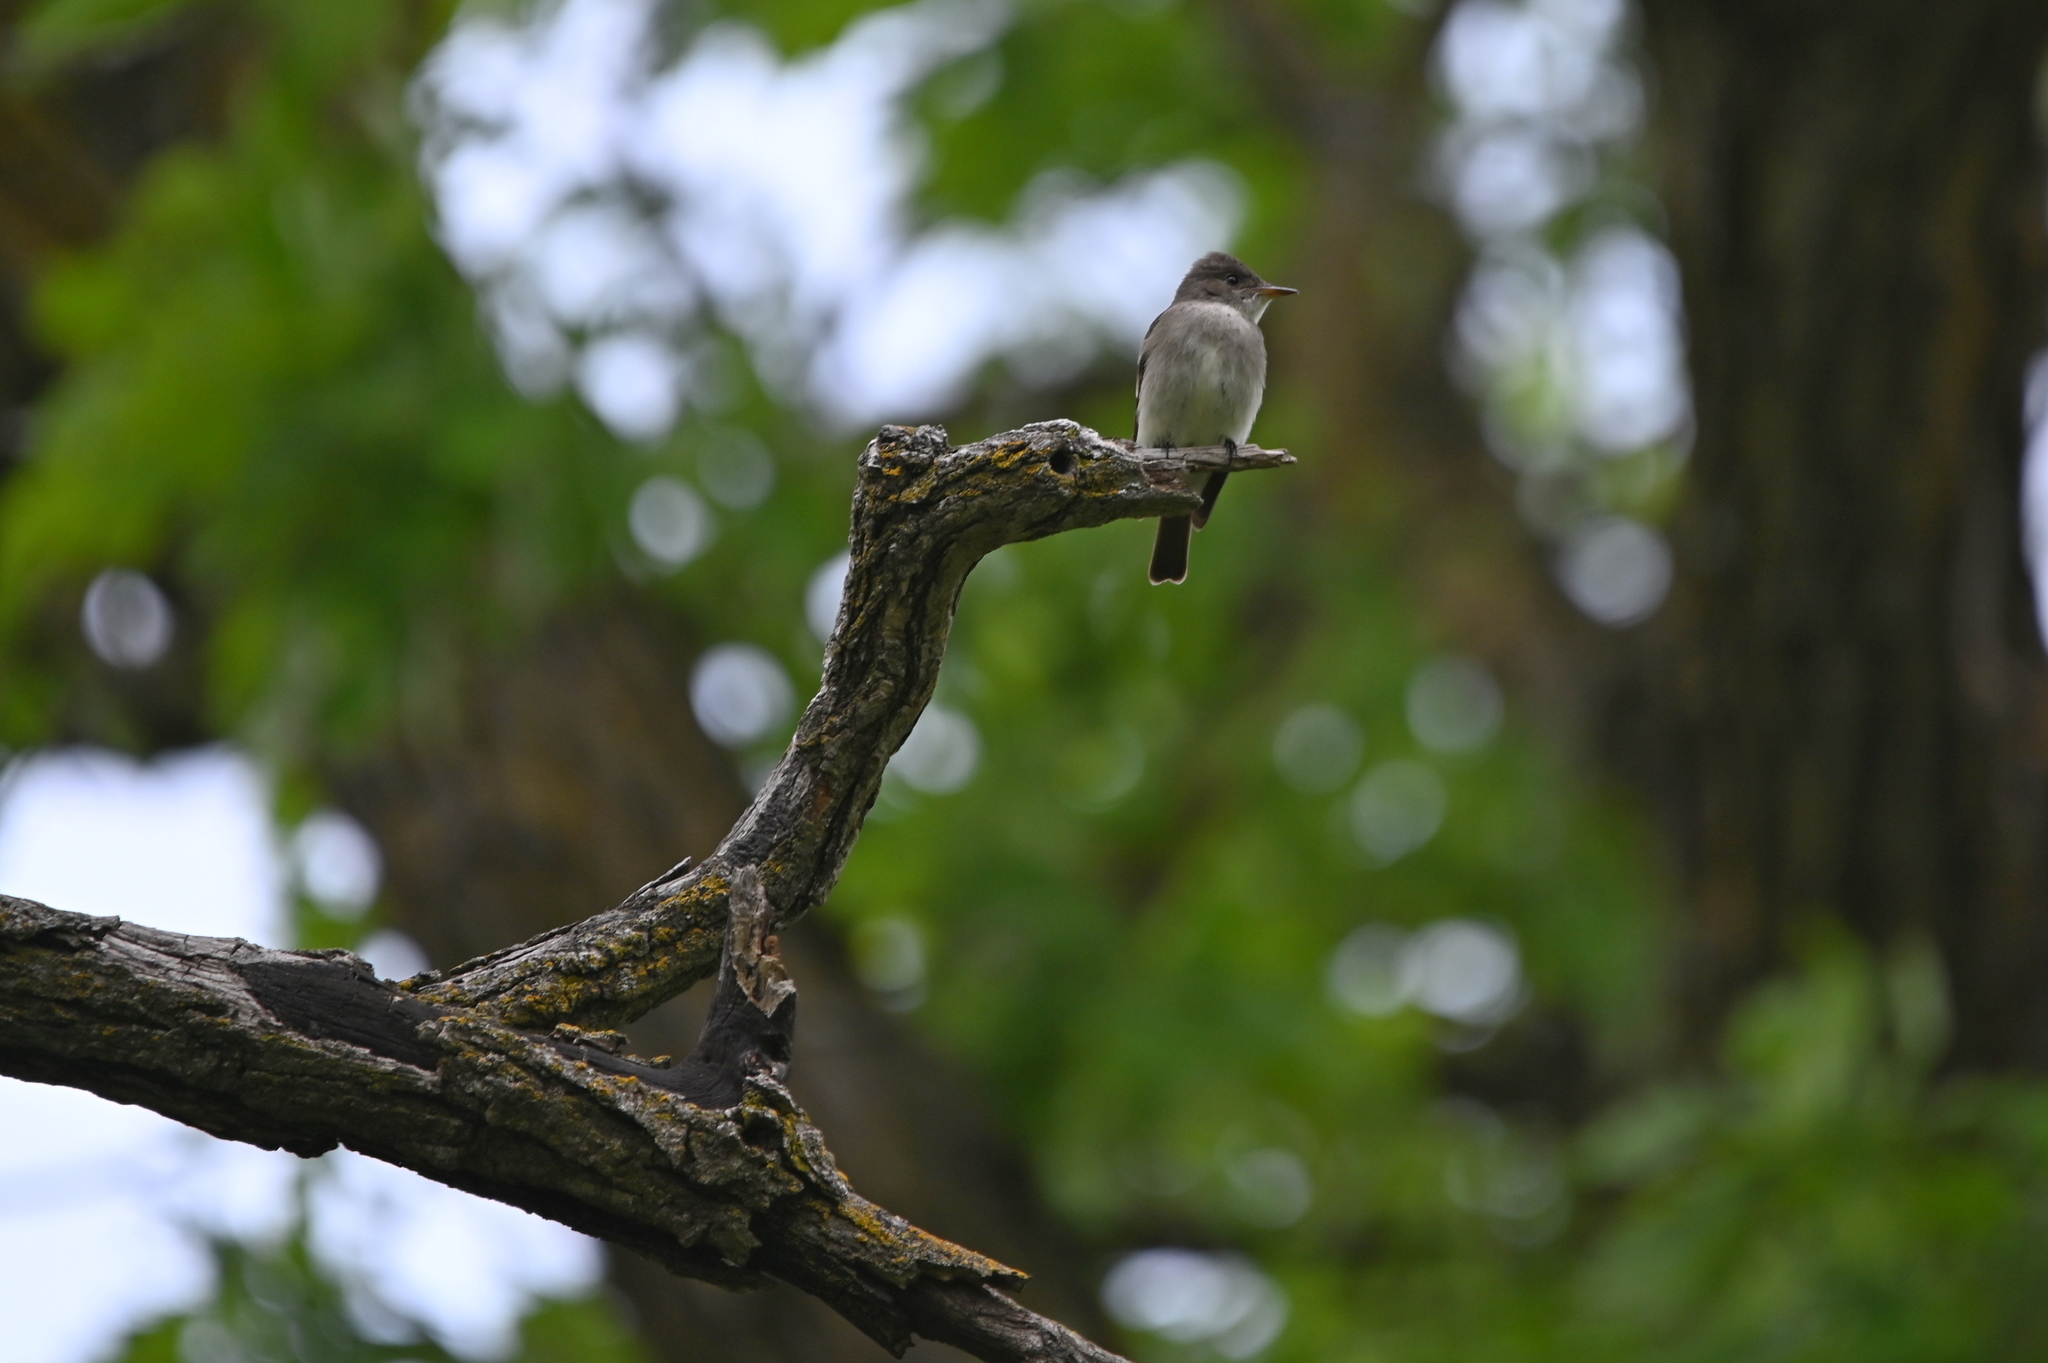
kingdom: Animalia
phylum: Chordata
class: Aves
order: Passeriformes
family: Tyrannidae
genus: Contopus
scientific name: Contopus sordidulus
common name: Western wood-pewee
